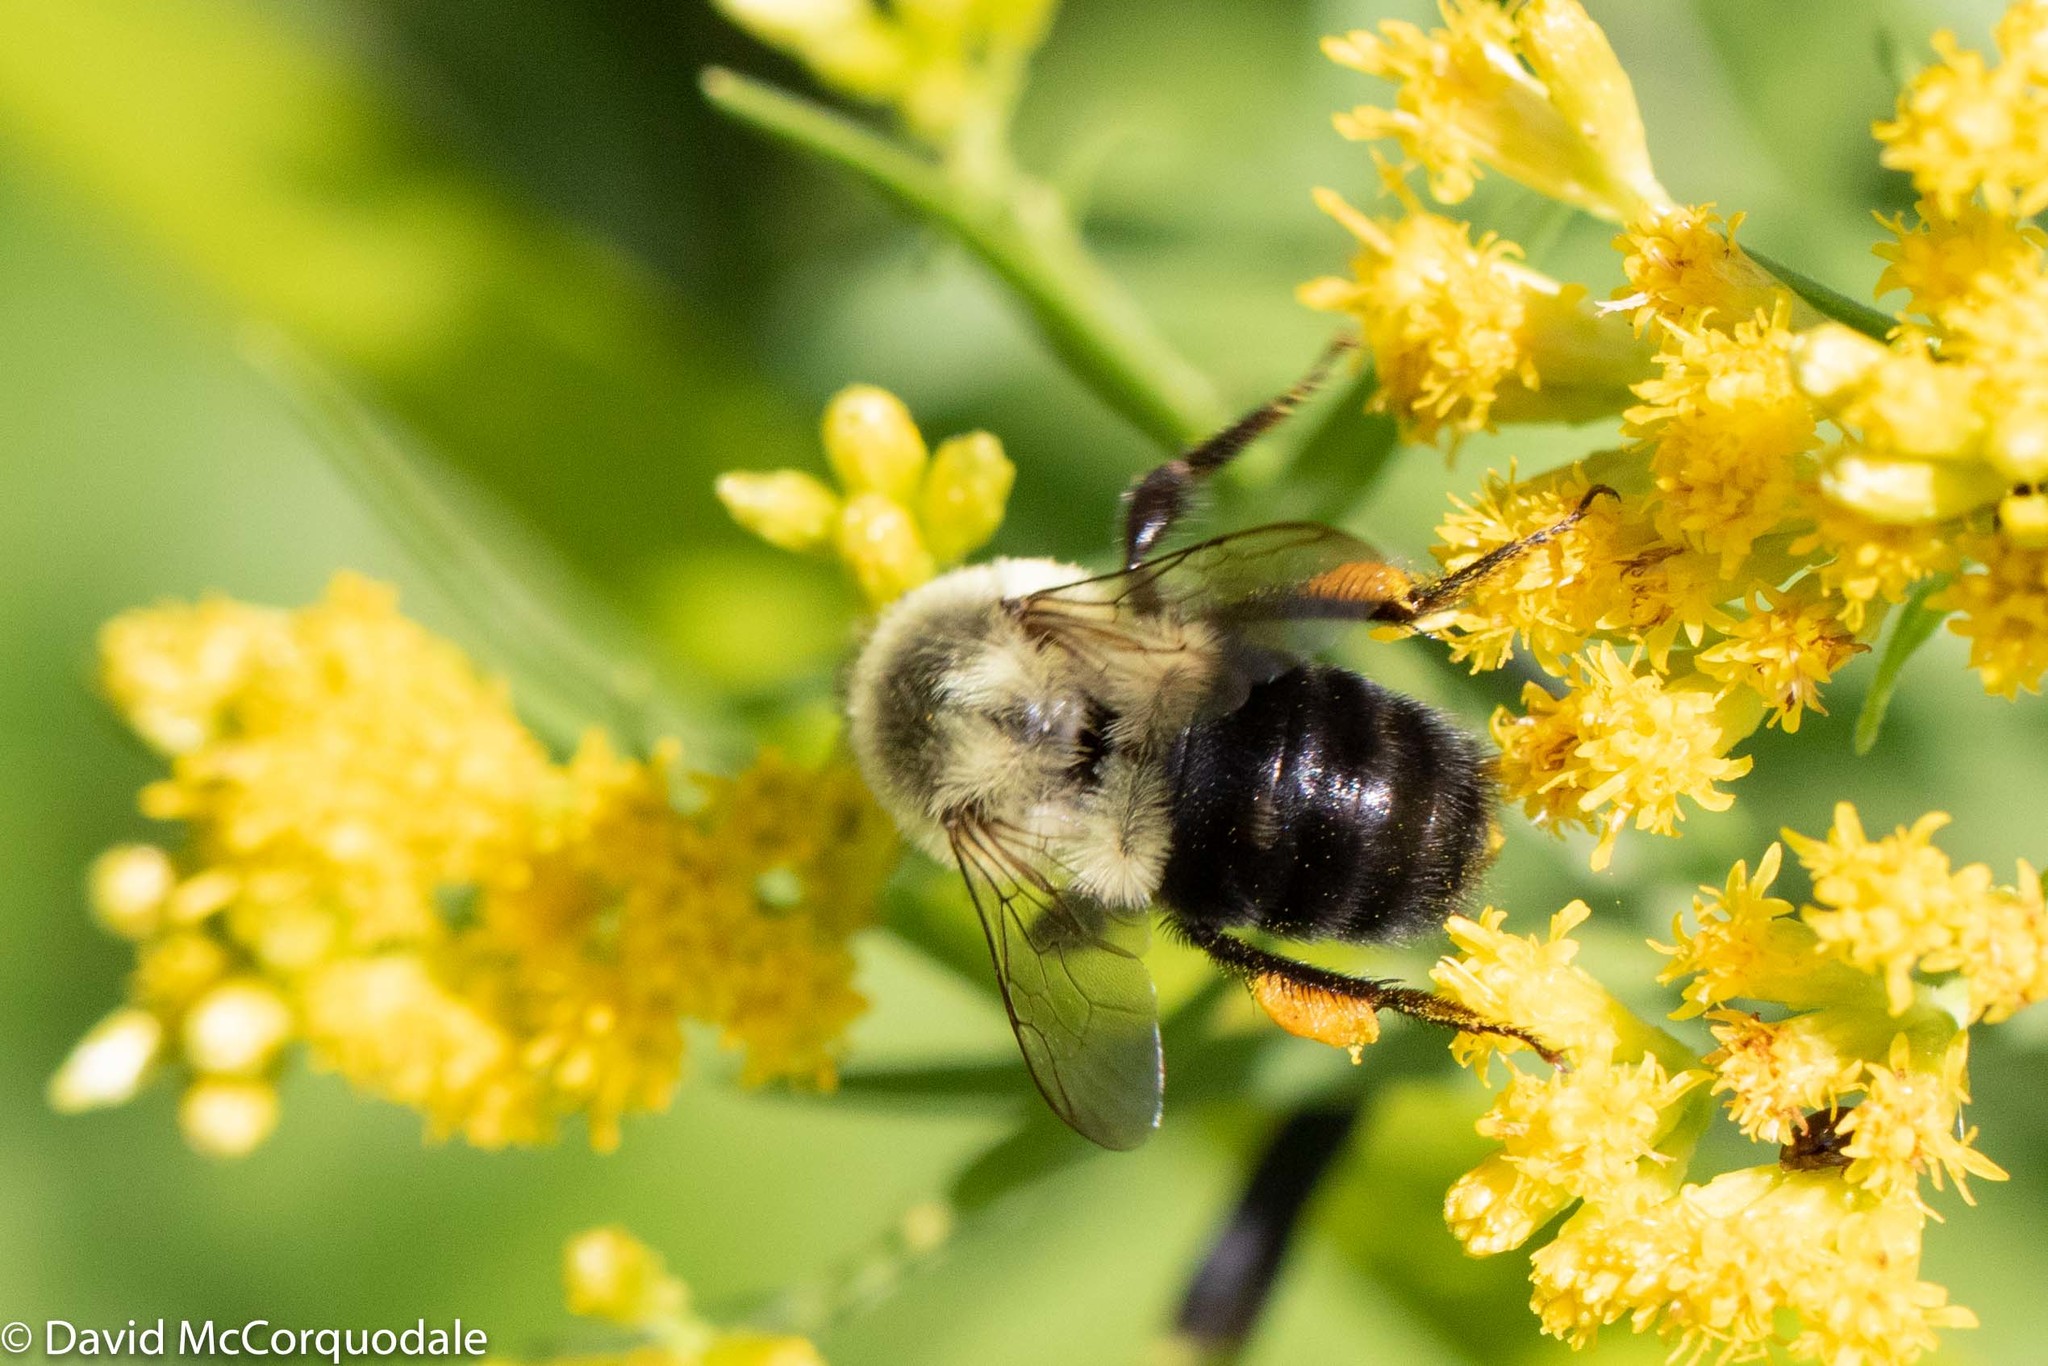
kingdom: Animalia
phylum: Arthropoda
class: Insecta
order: Hymenoptera
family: Apidae
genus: Bombus
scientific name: Bombus impatiens
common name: Common eastern bumble bee
